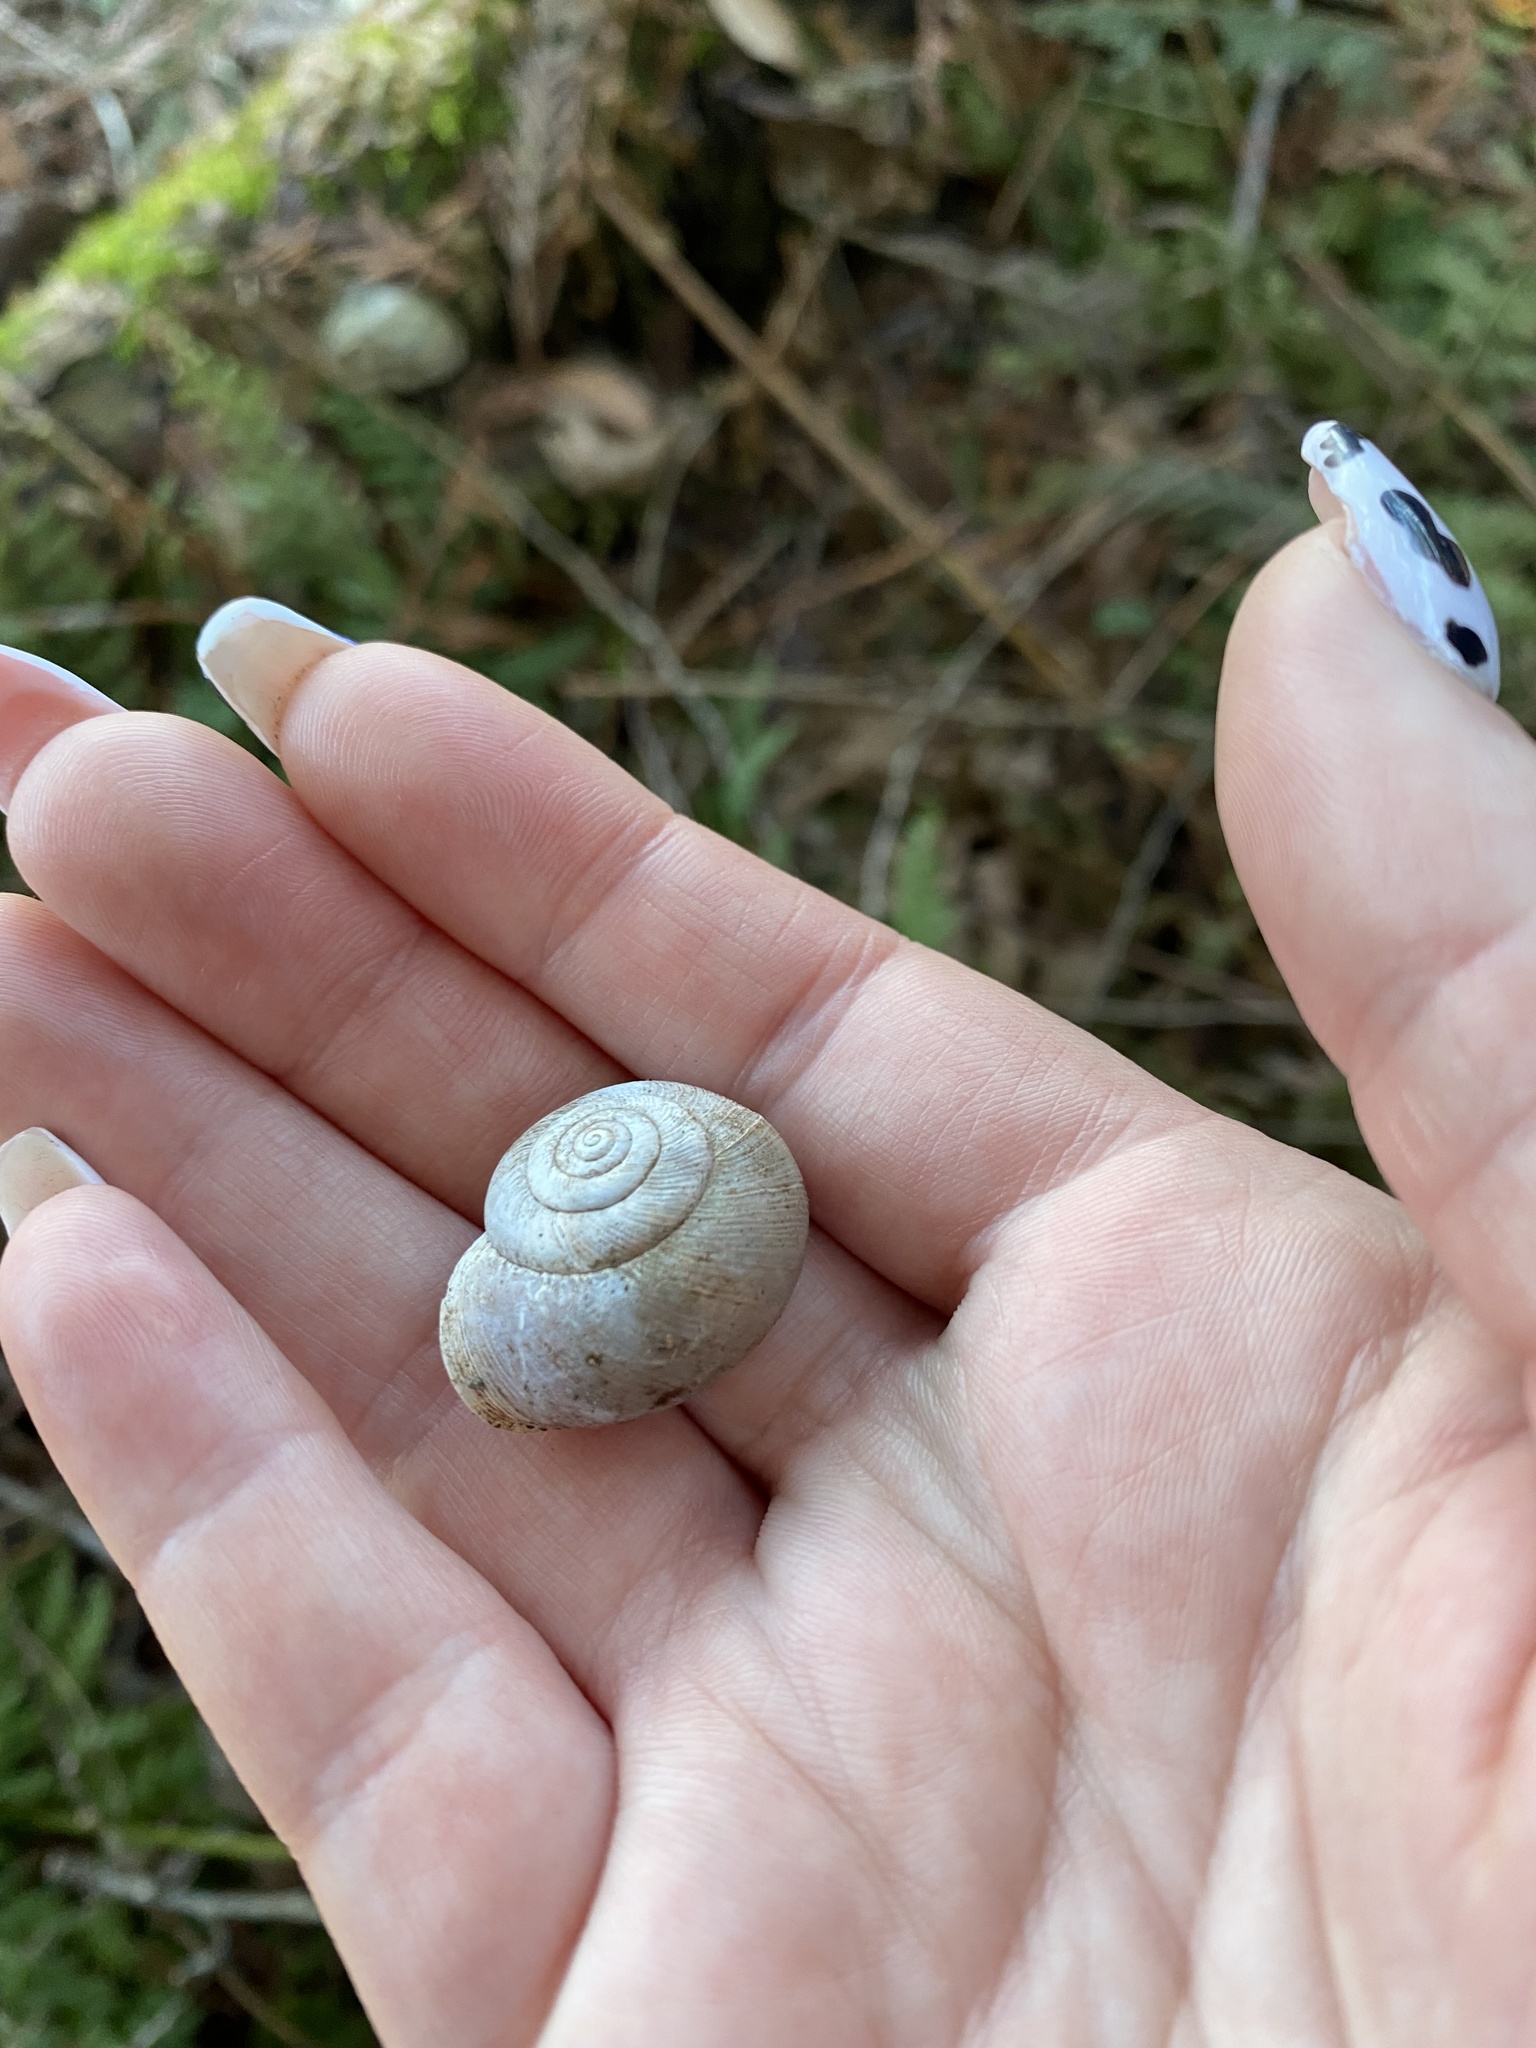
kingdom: Animalia
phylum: Mollusca
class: Gastropoda
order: Stylommatophora
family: Polygyridae
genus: Allogona
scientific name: Allogona townsendiana
